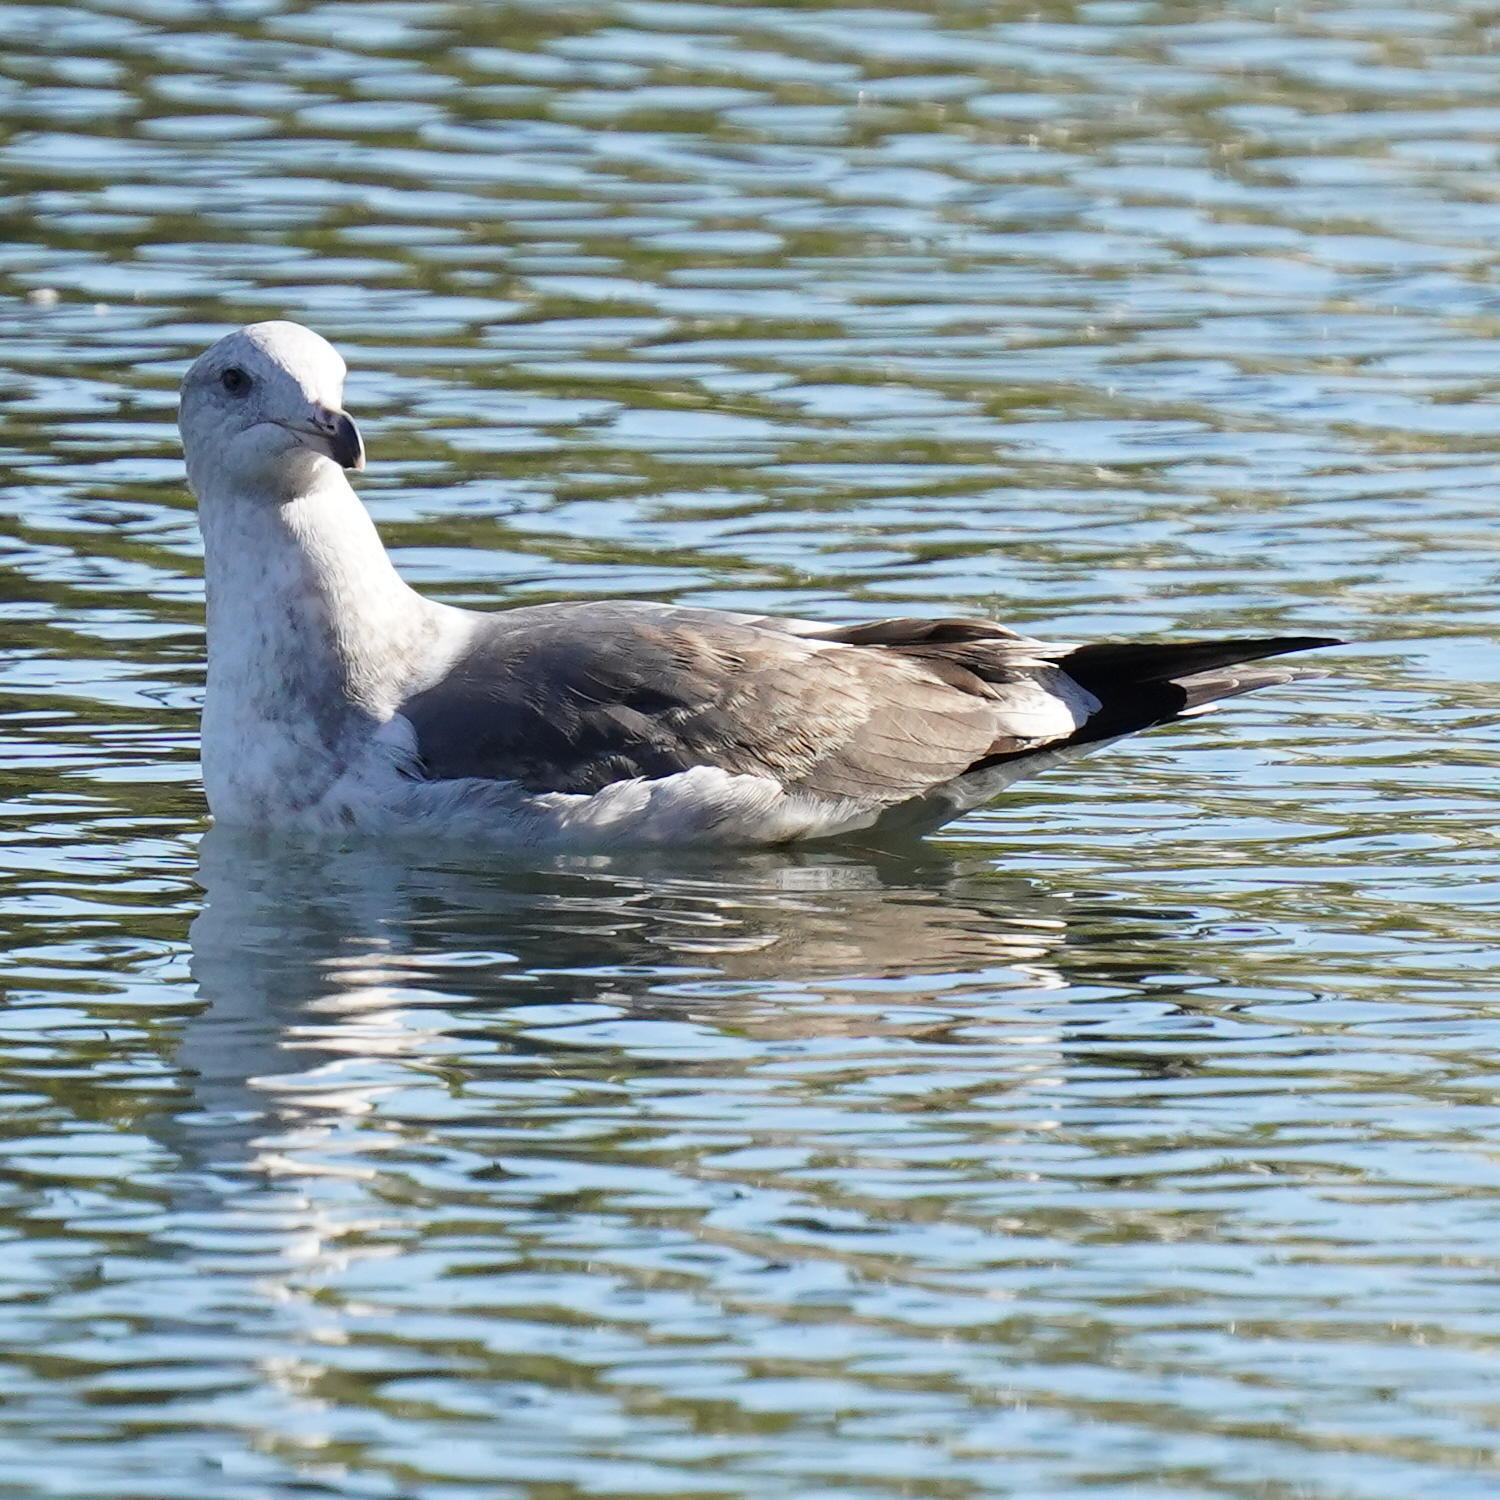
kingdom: Animalia
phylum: Chordata
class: Aves
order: Charadriiformes
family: Laridae
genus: Larus
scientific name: Larus occidentalis
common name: Western gull
